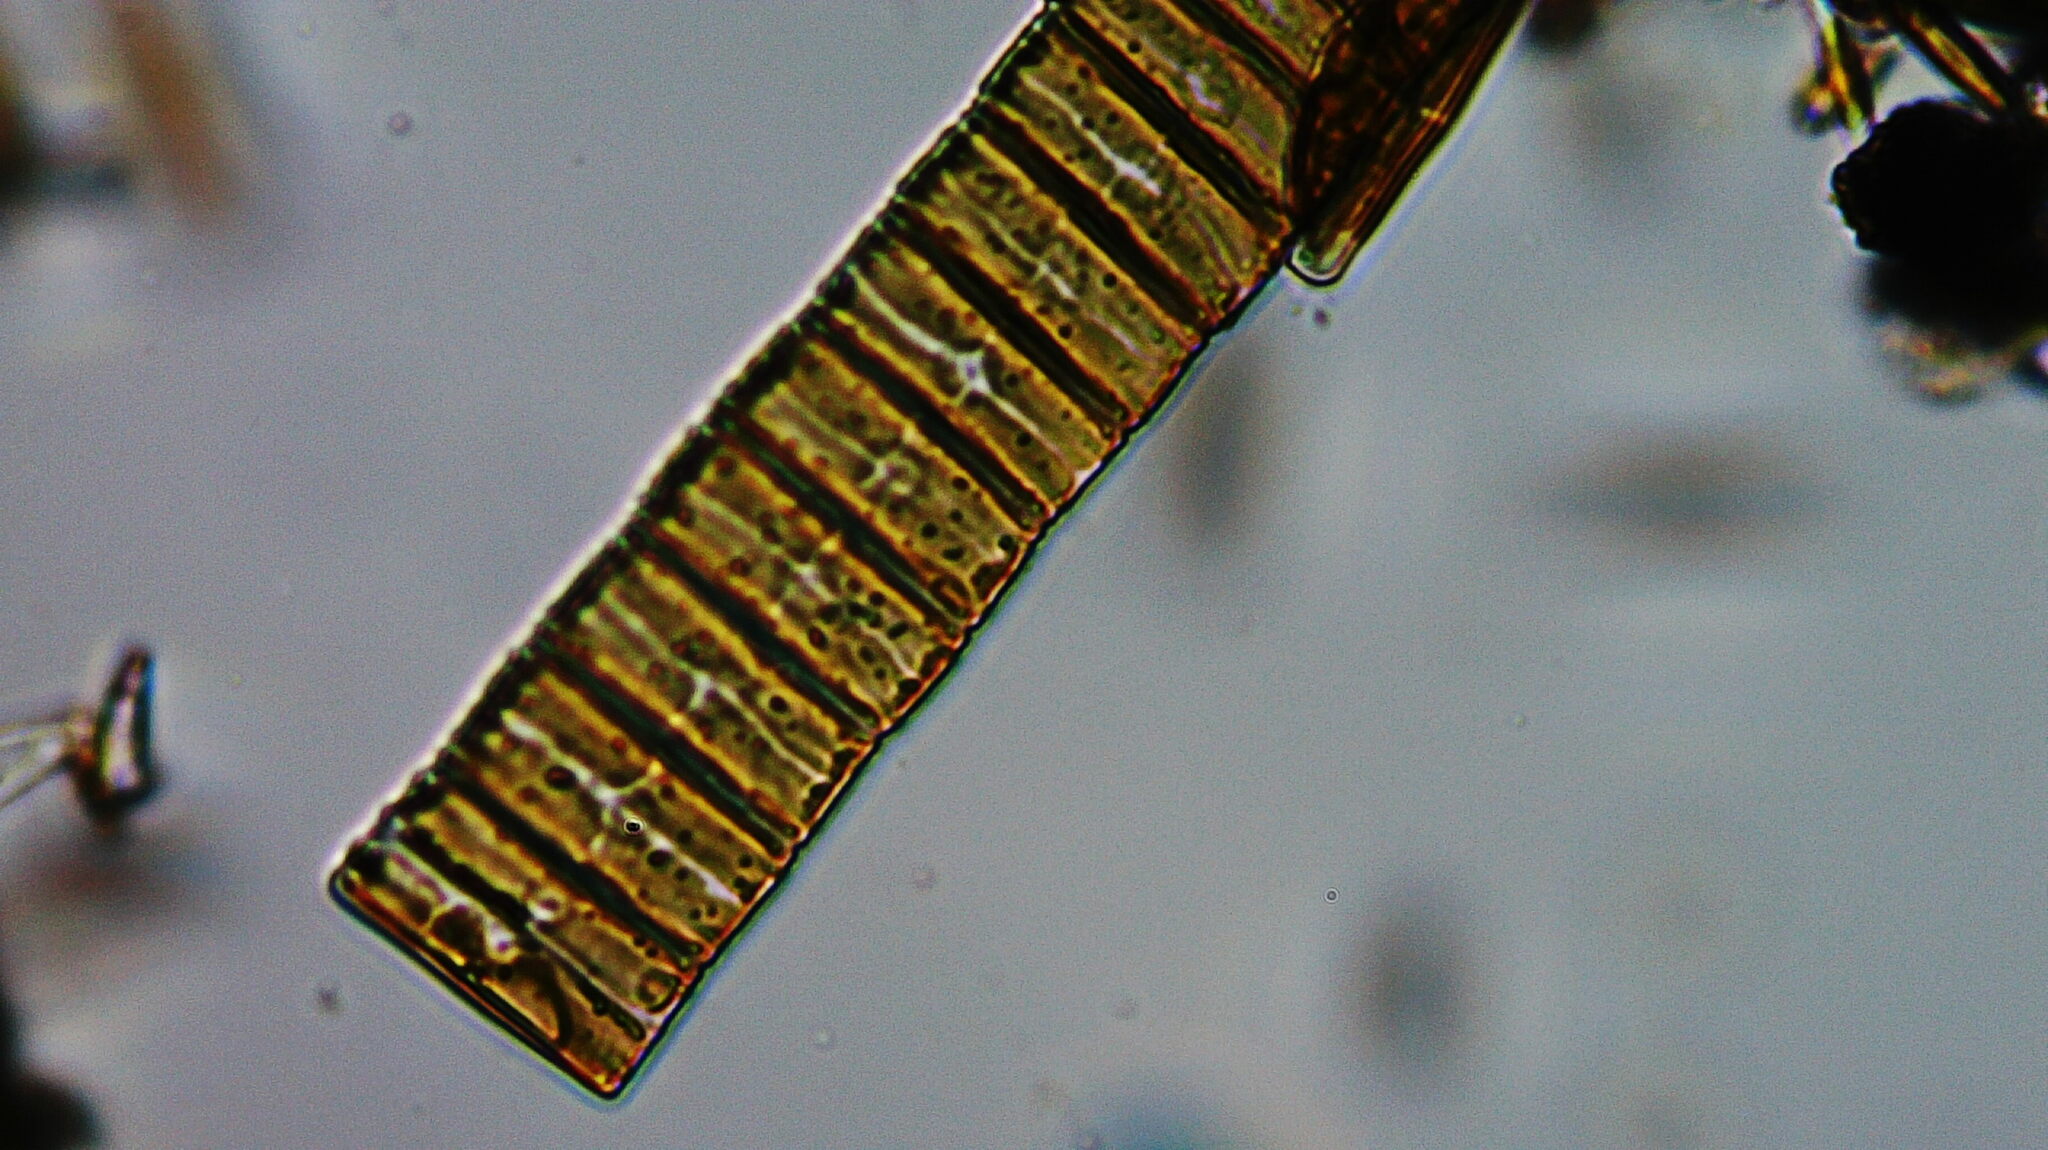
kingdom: Chromista
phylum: Ochrophyta
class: Bacillariophyceae
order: Eunotiales
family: Eunotiaceae
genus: Eunotia
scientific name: Eunotia
